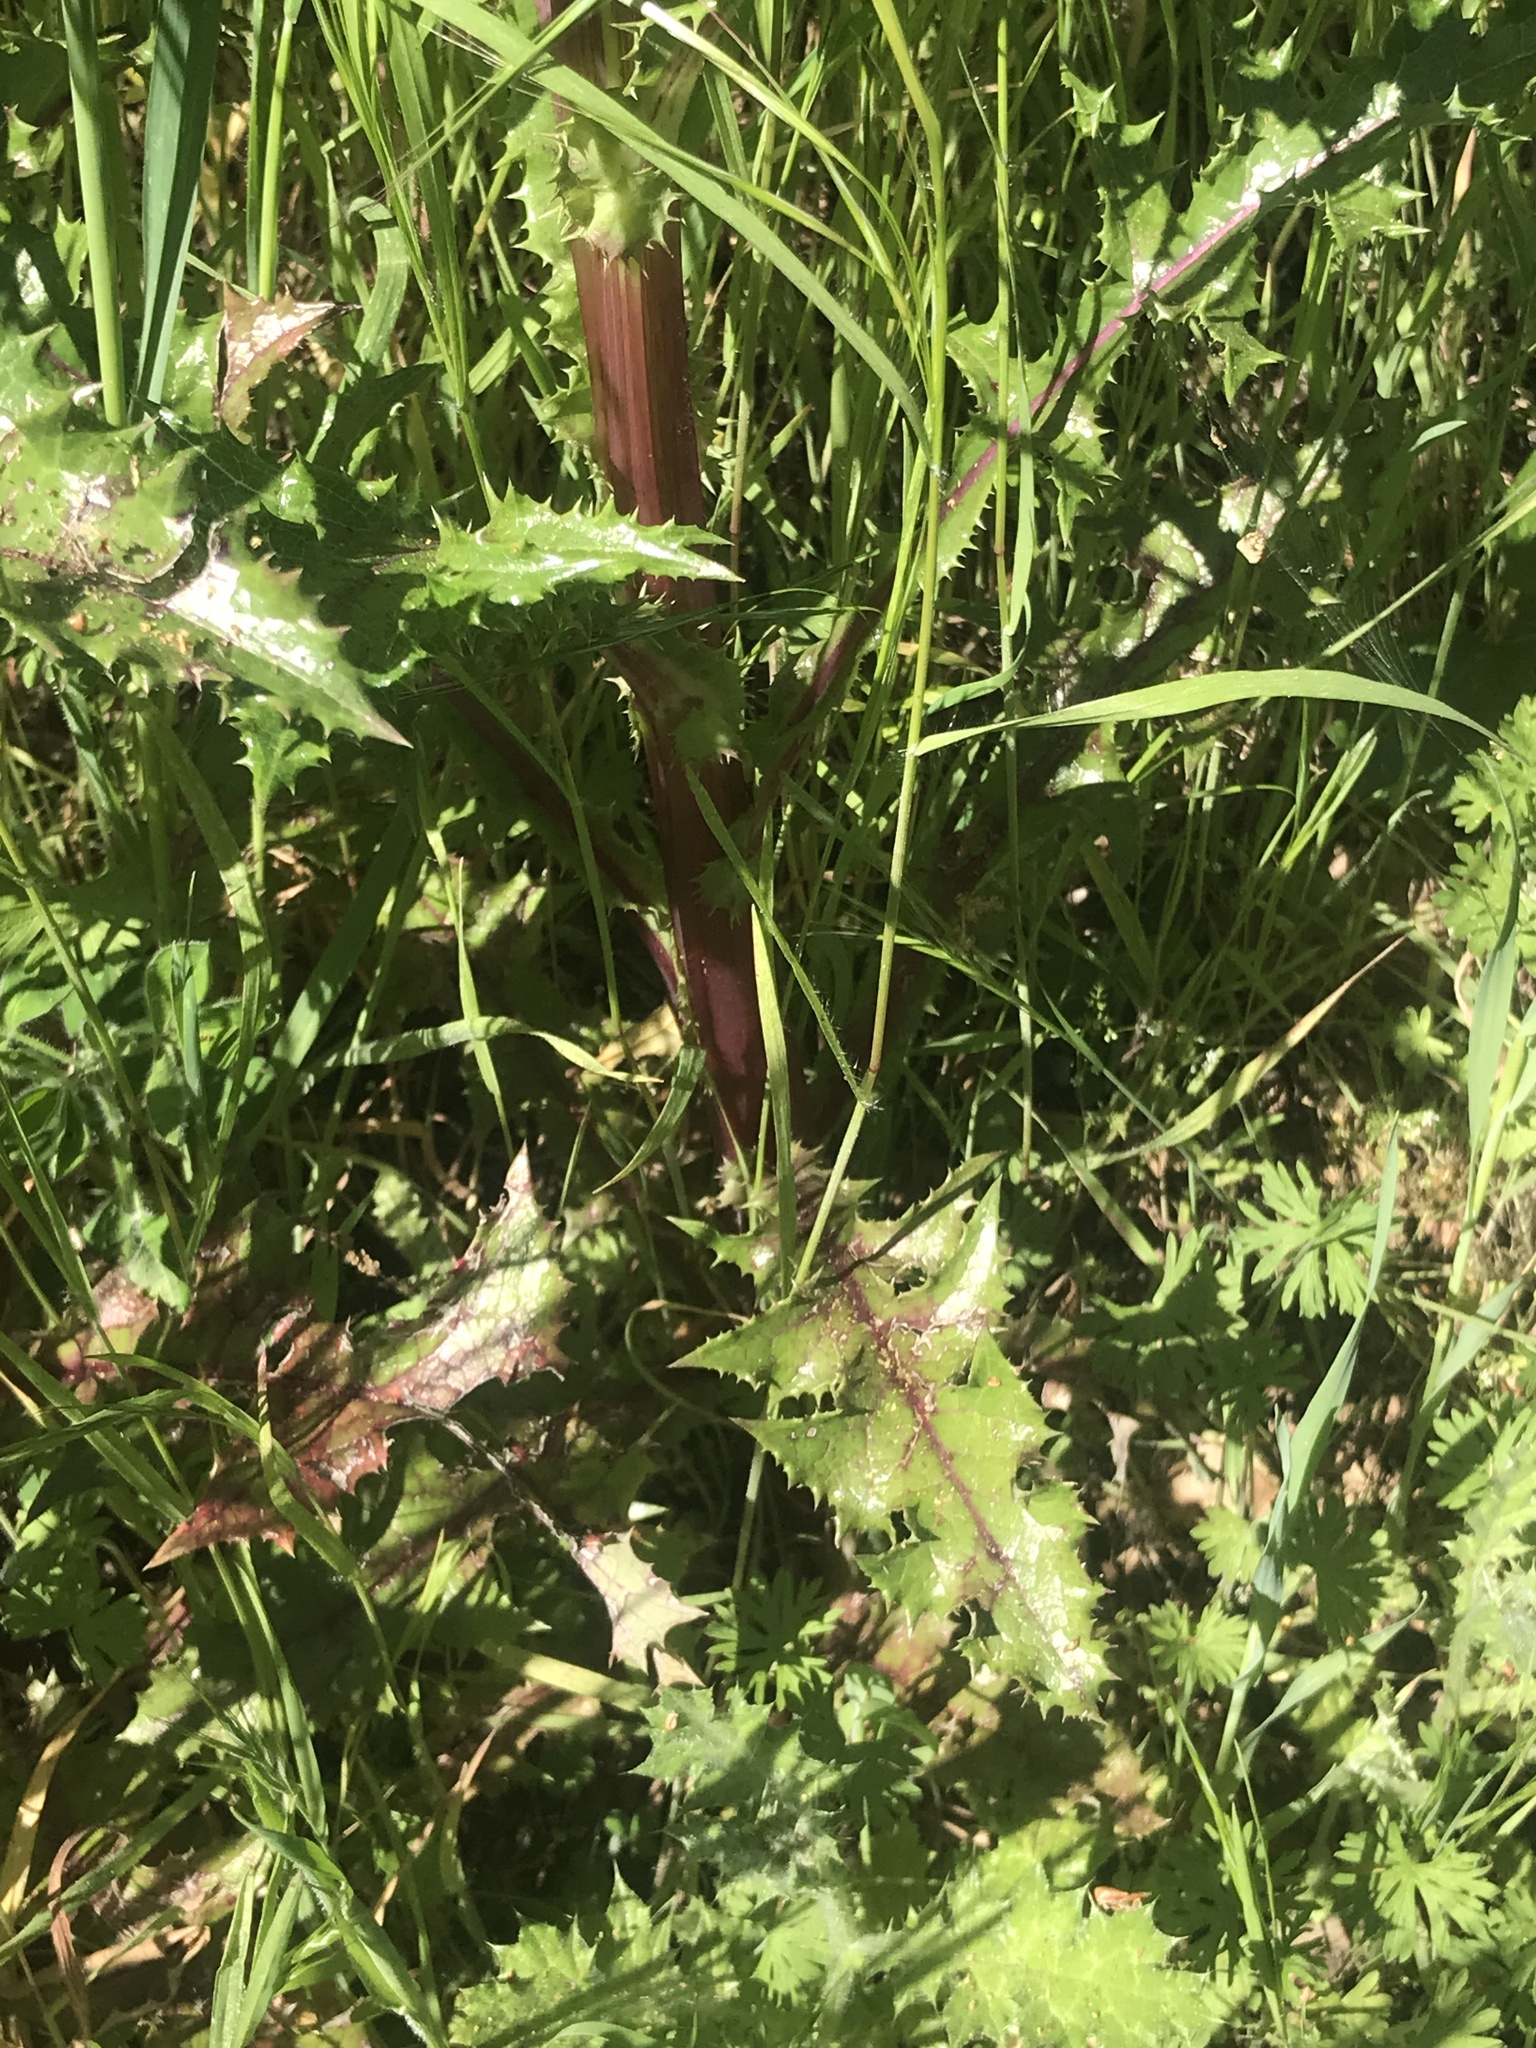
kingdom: Plantae
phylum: Tracheophyta
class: Magnoliopsida
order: Asterales
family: Asteraceae
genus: Sonchus
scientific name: Sonchus asper
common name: Prickly sow-thistle
